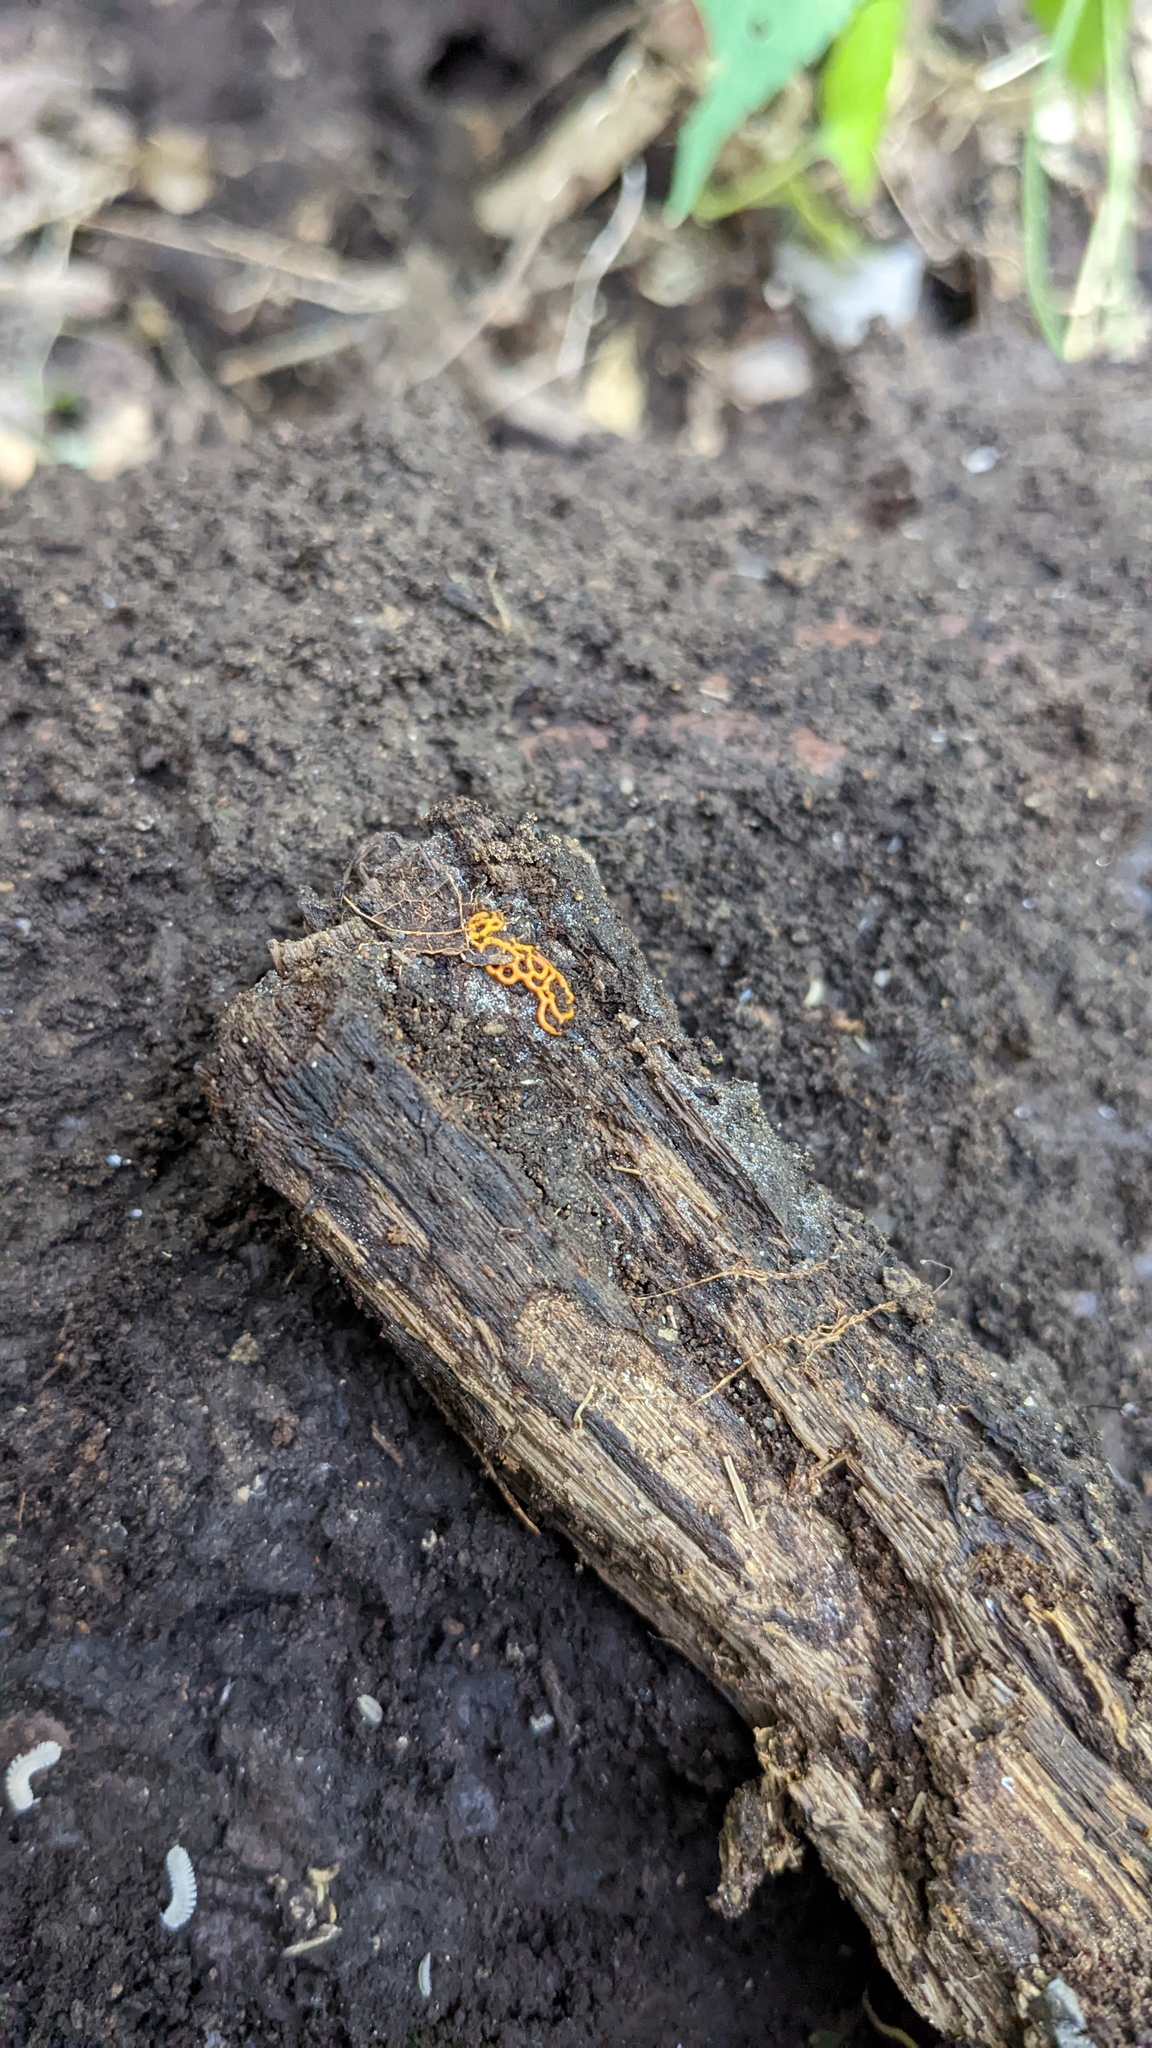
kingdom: Protozoa
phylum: Mycetozoa
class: Myxomycetes
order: Trichiales
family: Arcyriaceae
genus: Hemitrichia
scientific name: Hemitrichia serpula
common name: Pretzel slime mold
